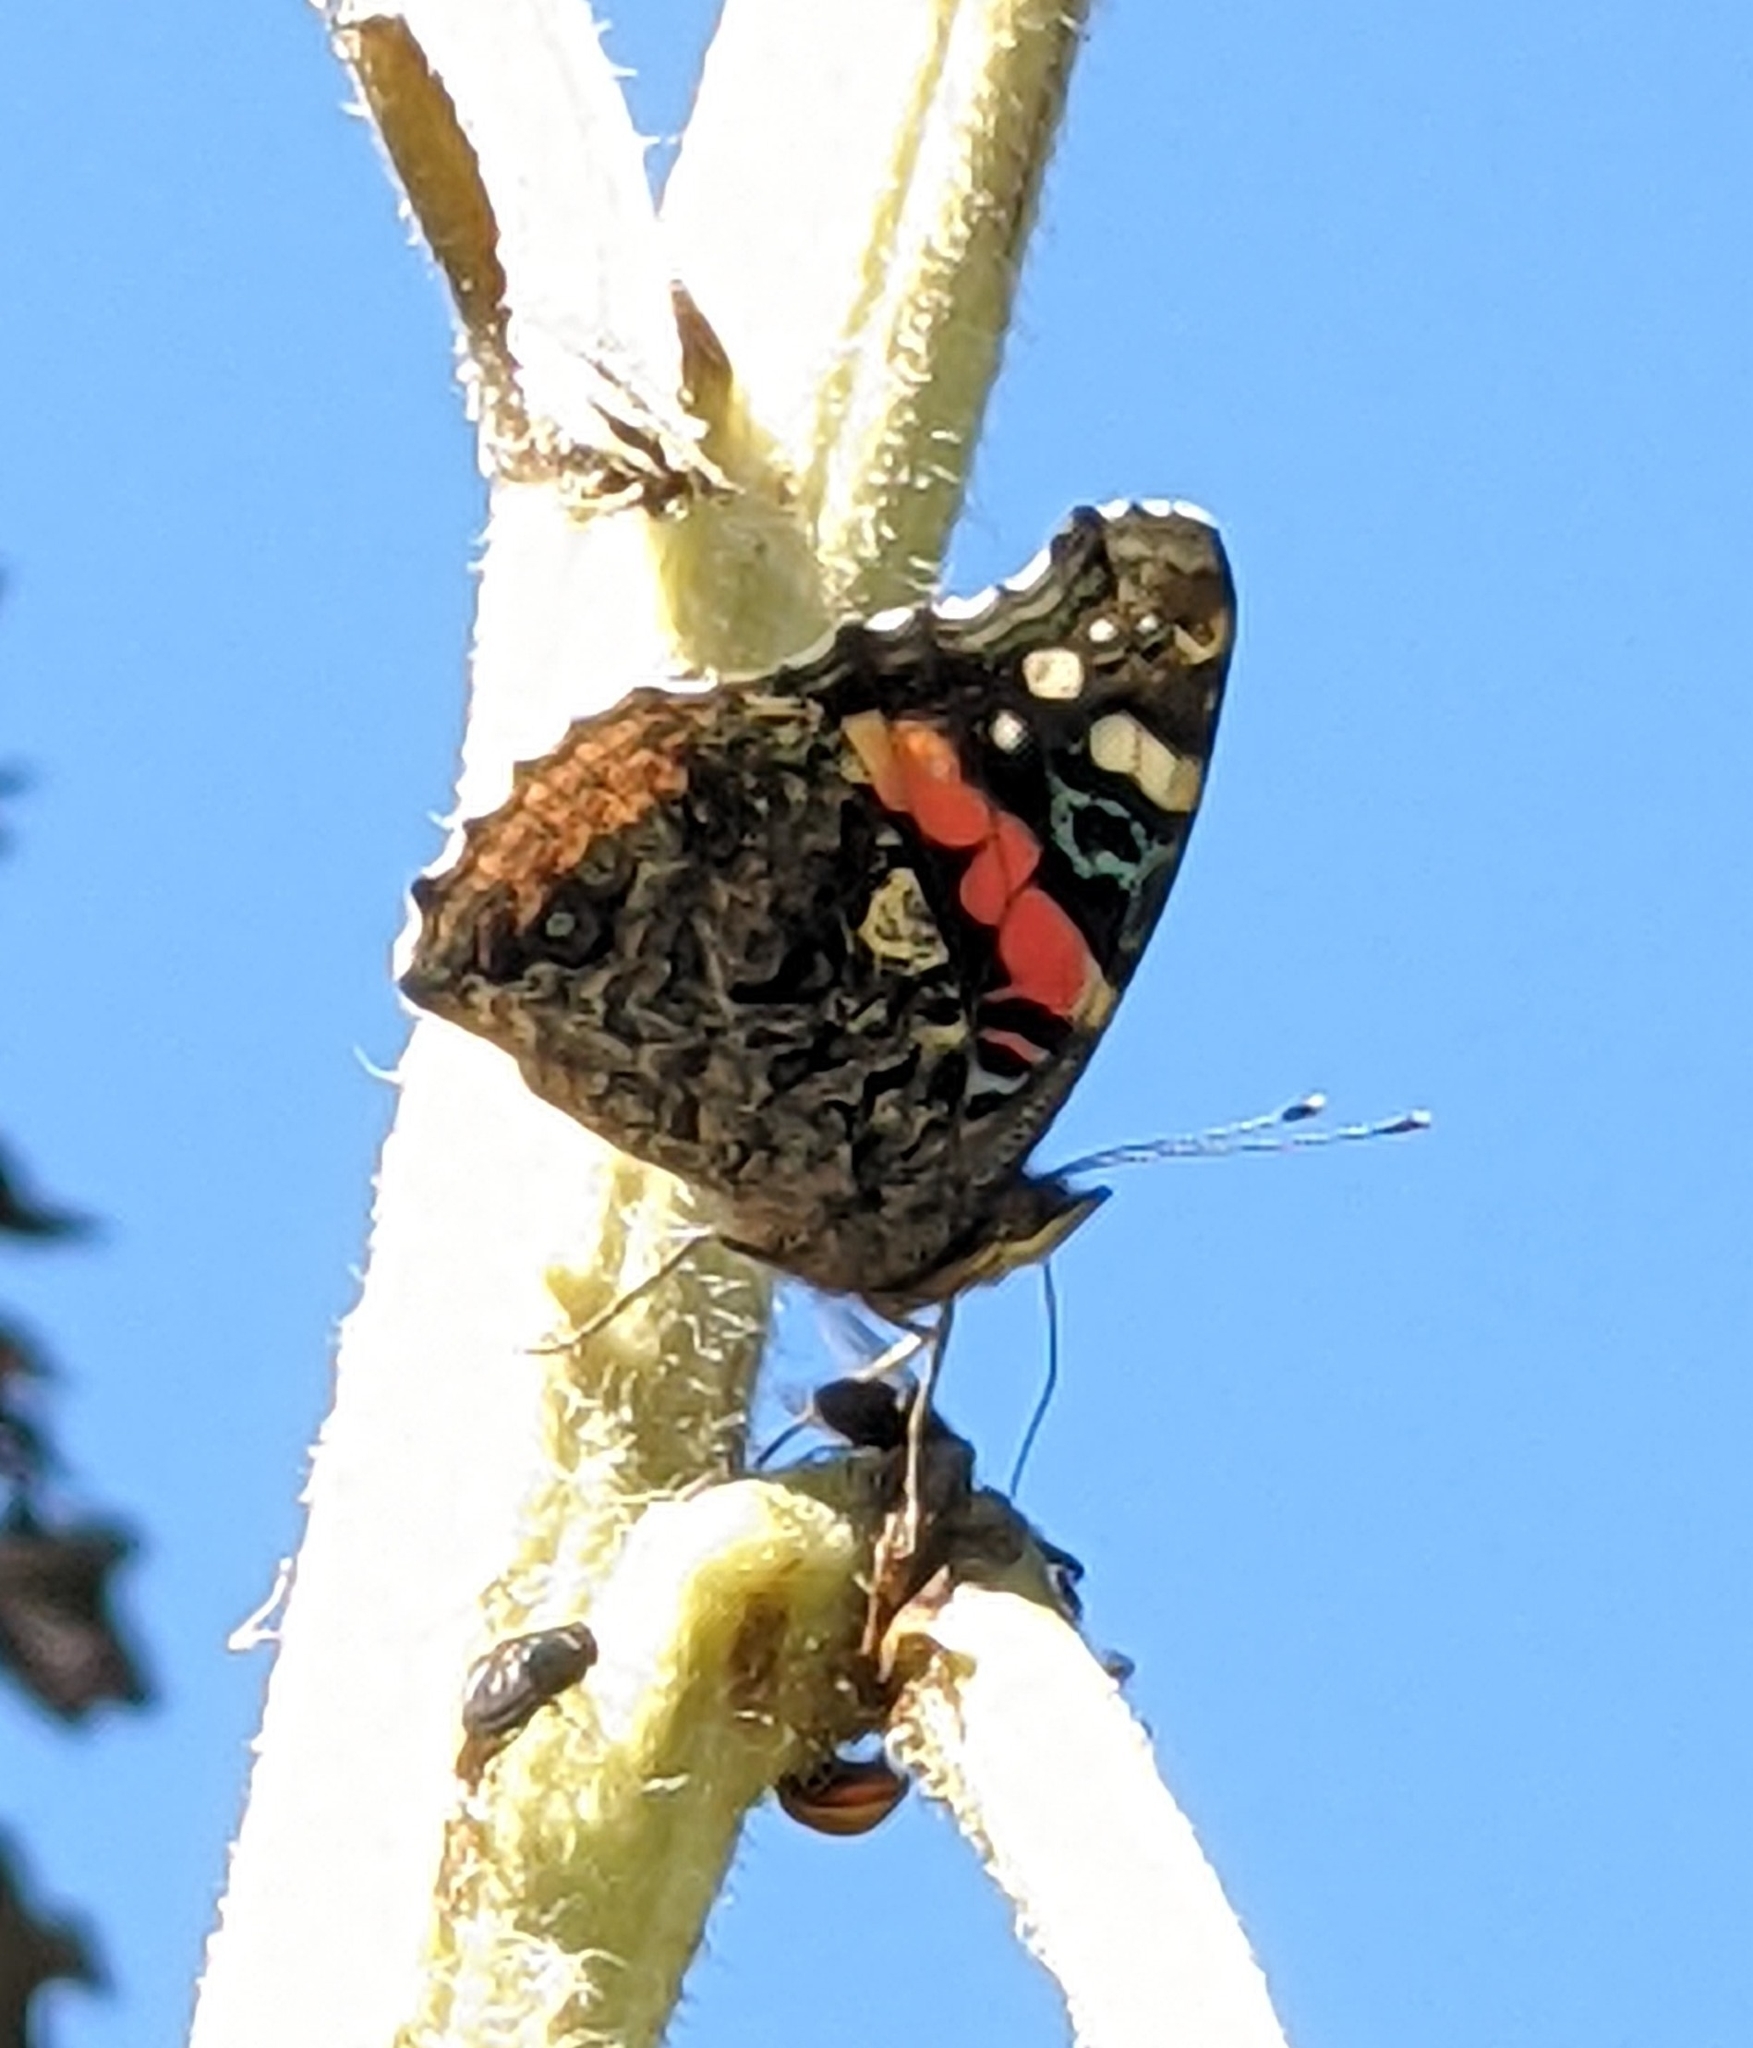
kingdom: Animalia
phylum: Arthropoda
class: Insecta
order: Lepidoptera
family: Nymphalidae
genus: Vanessa
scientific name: Vanessa atalanta
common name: Red admiral
